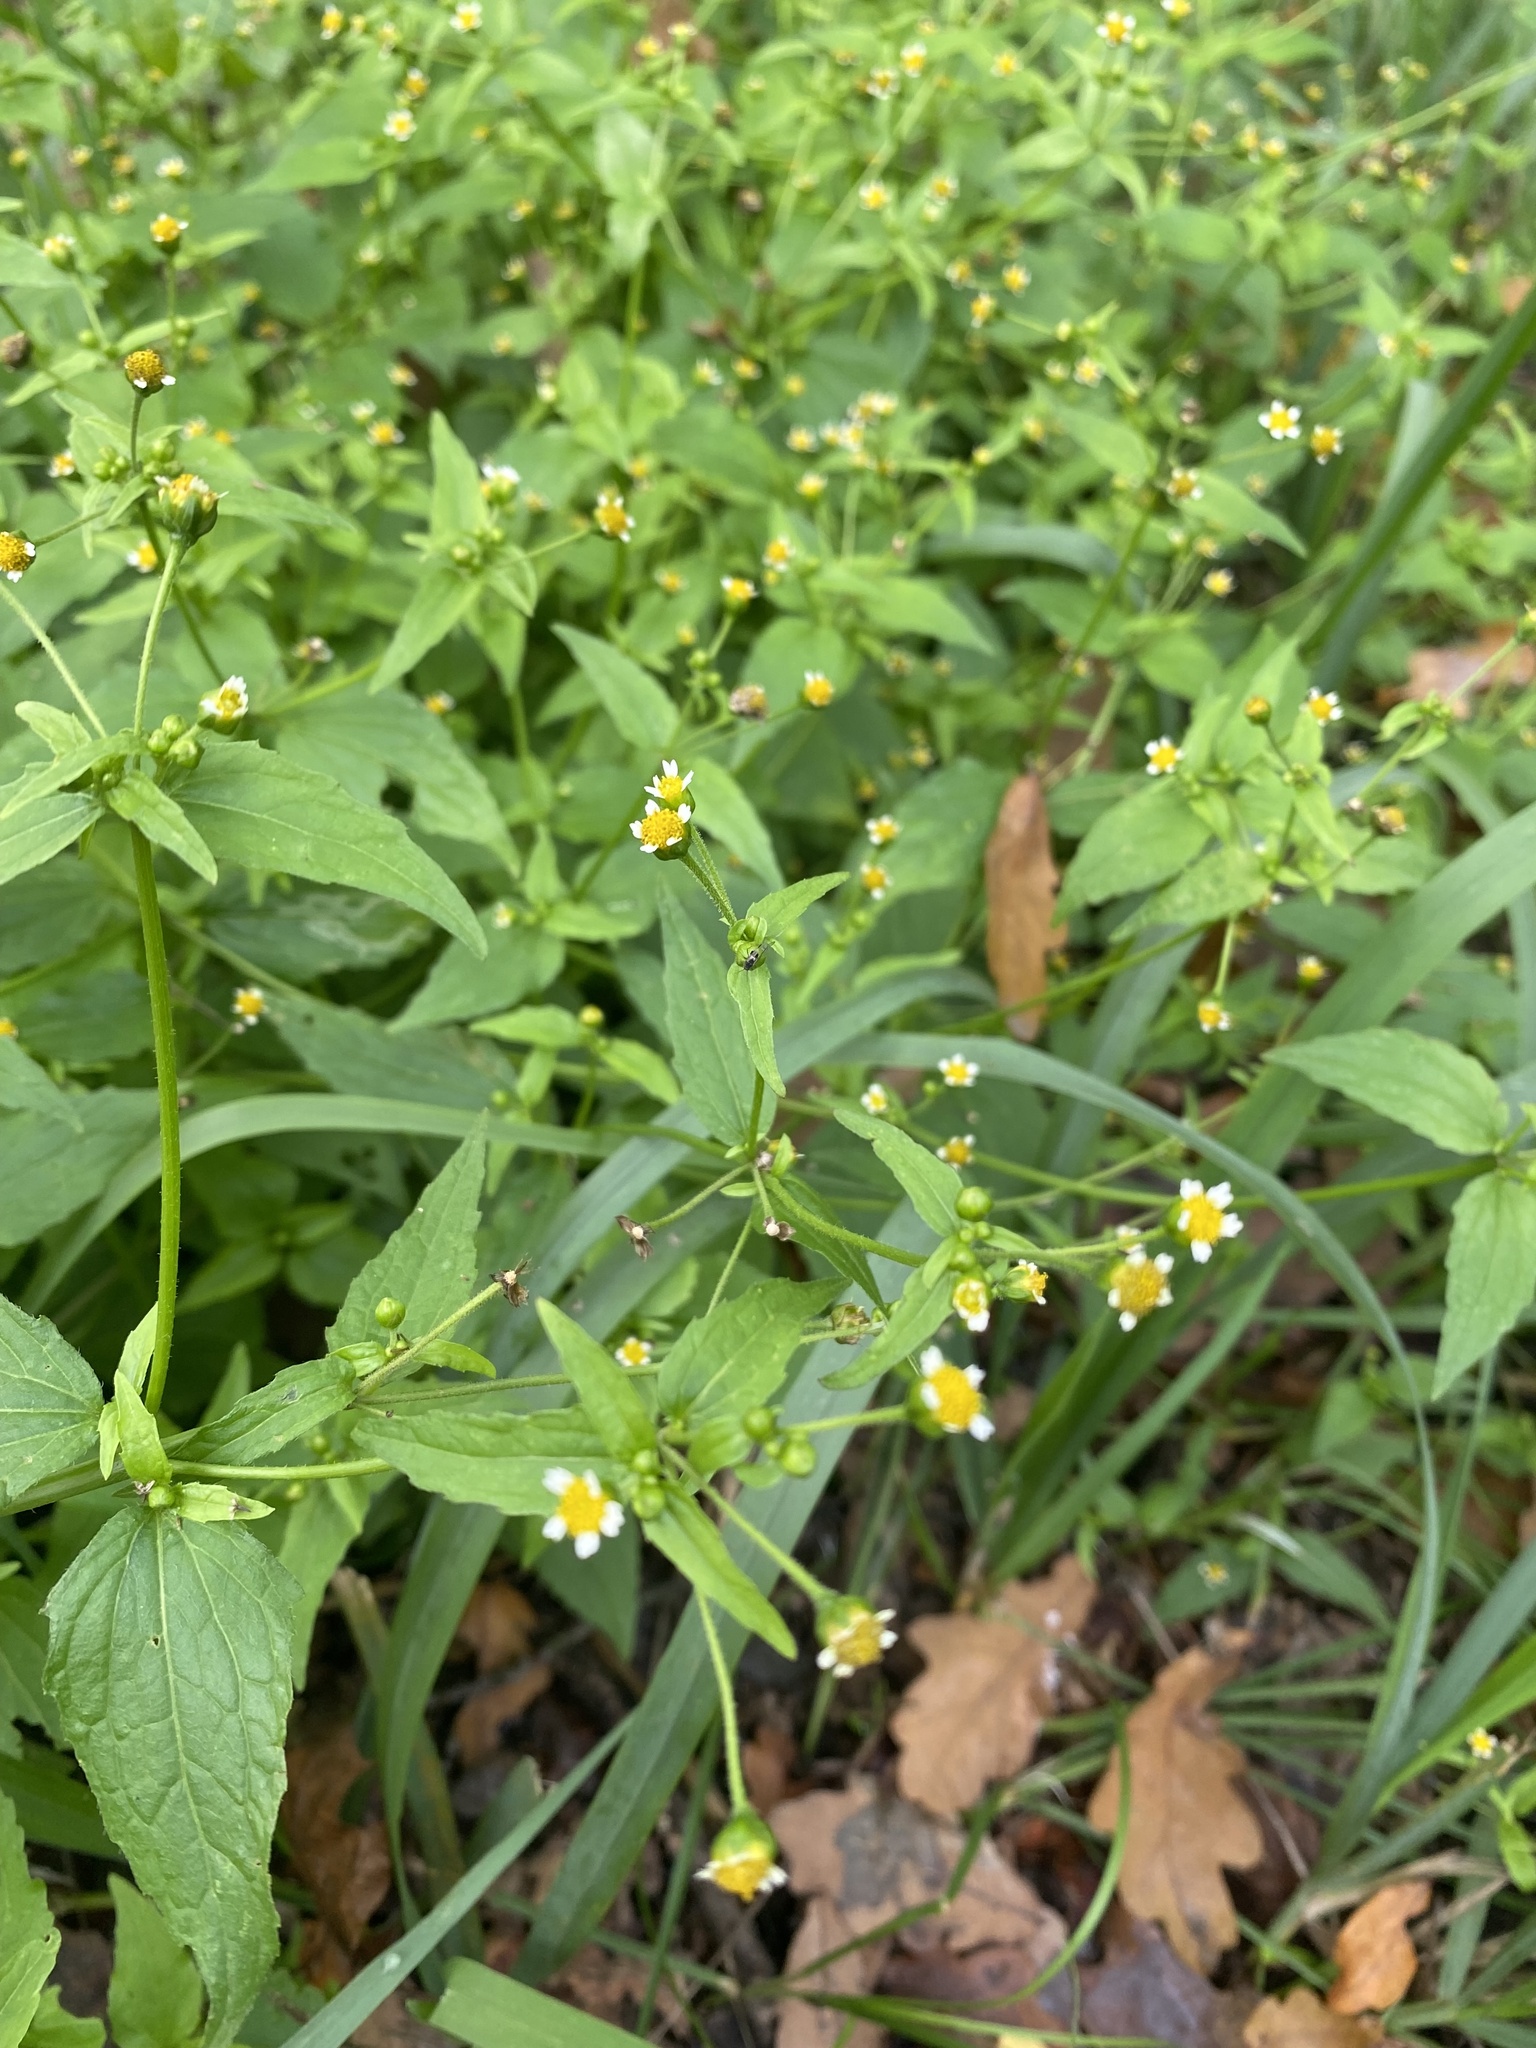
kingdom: Plantae
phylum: Tracheophyta
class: Magnoliopsida
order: Asterales
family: Asteraceae
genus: Galinsoga
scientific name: Galinsoga parviflora
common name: Gallant soldier
